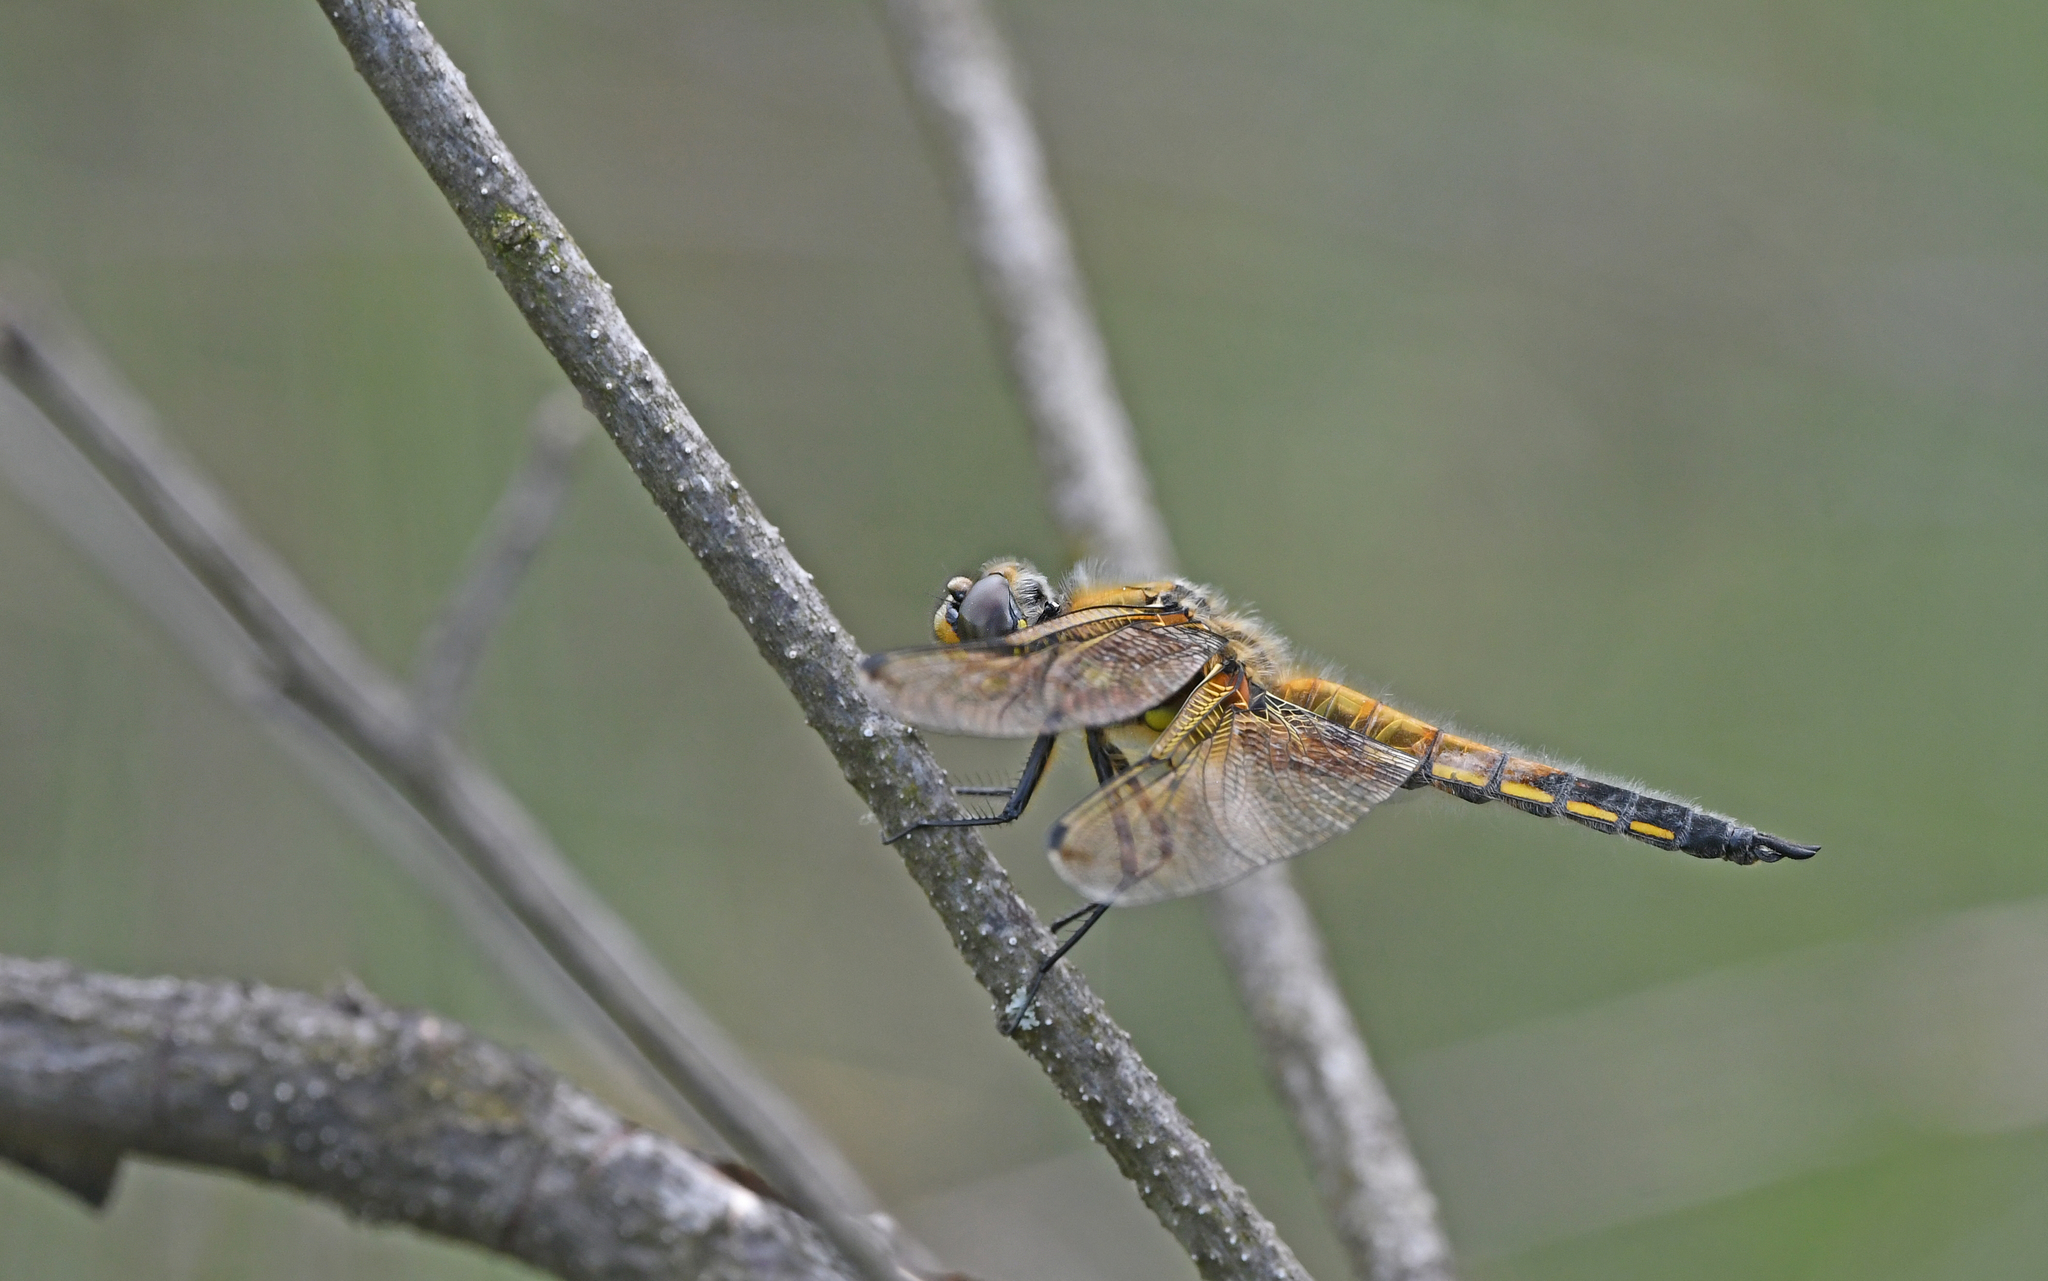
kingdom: Animalia
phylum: Arthropoda
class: Insecta
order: Odonata
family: Libellulidae
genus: Libellula
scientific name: Libellula quadrimaculata
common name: Four-spotted chaser
